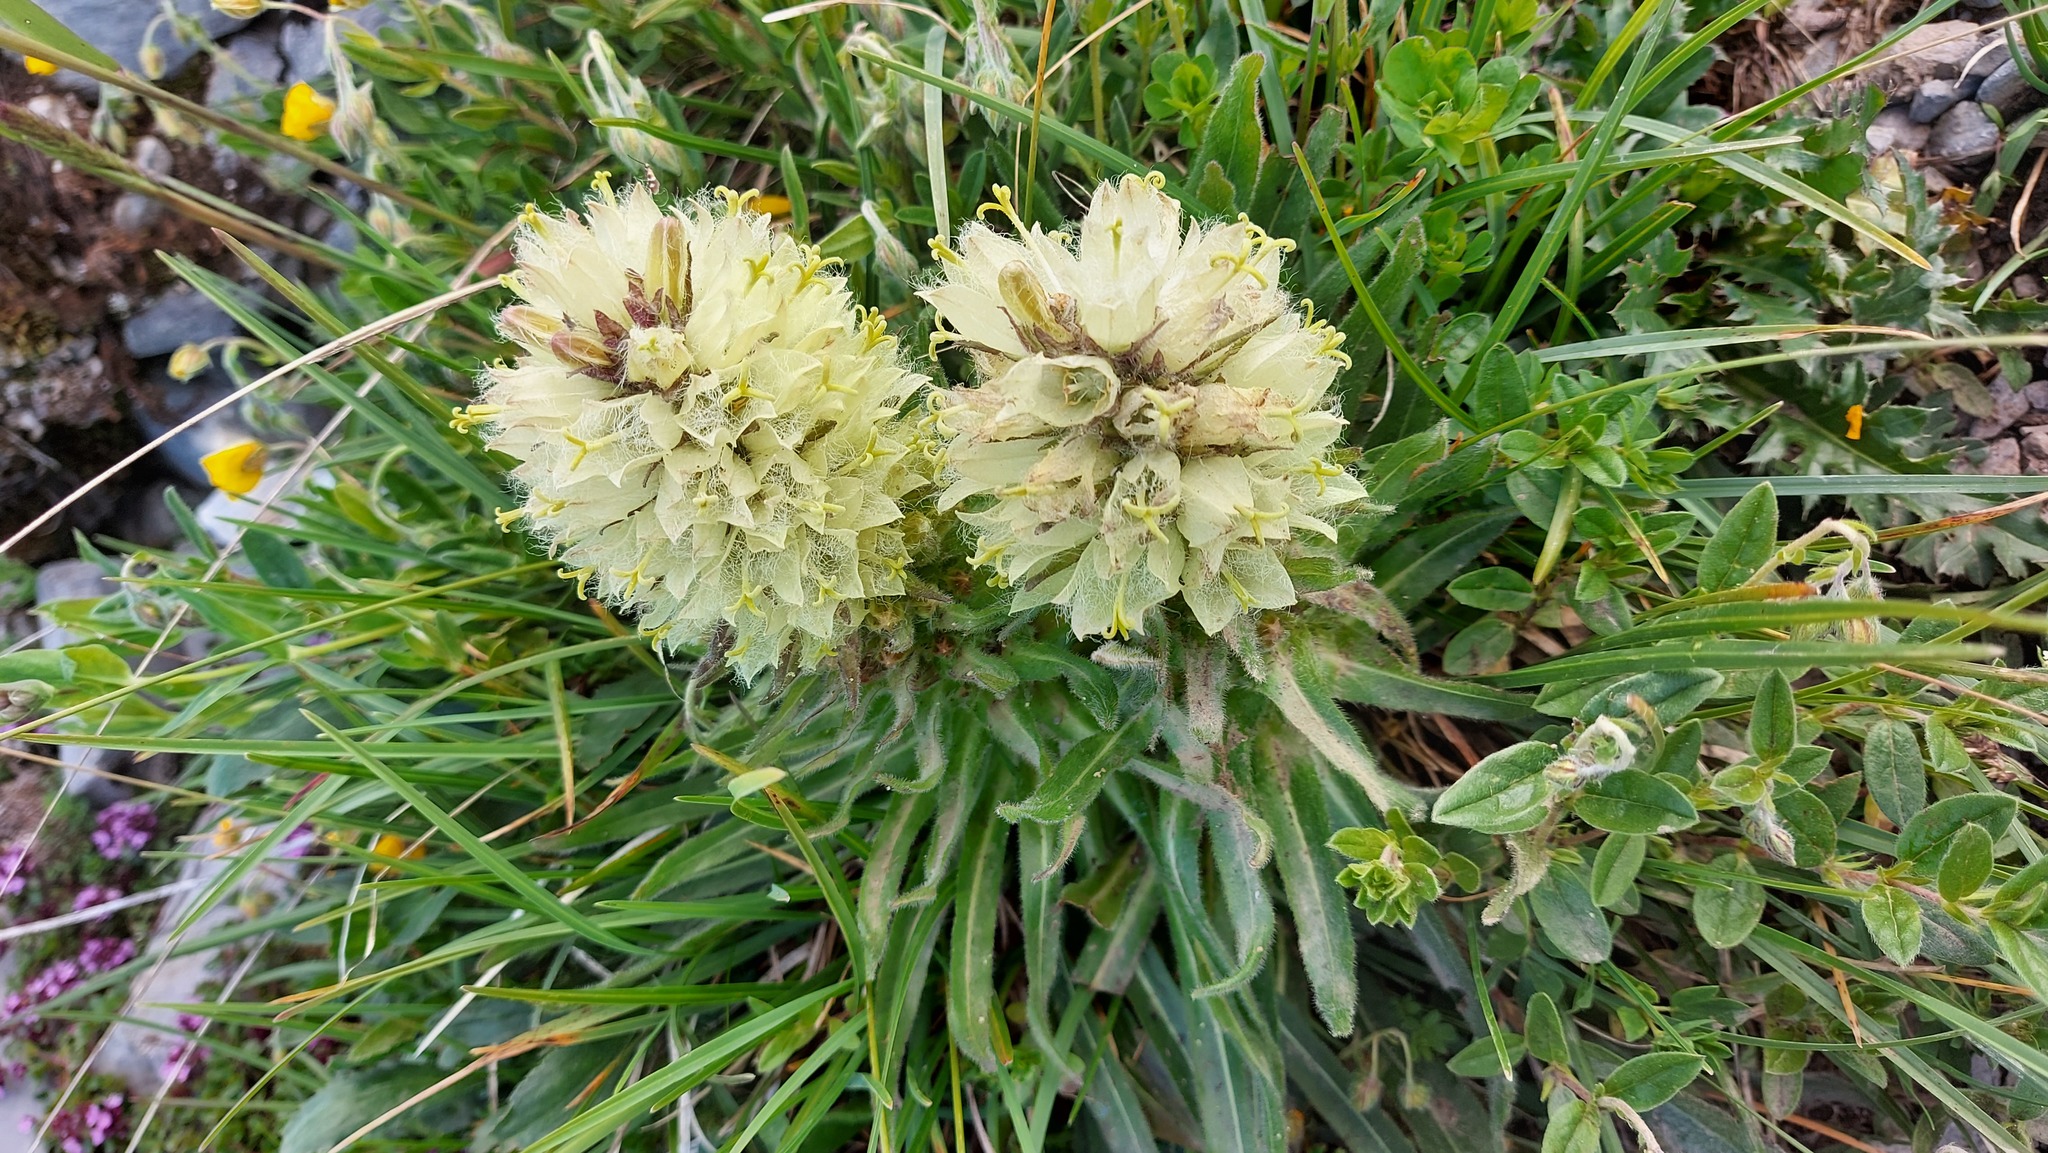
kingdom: Plantae
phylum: Tracheophyta
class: Magnoliopsida
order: Asterales
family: Campanulaceae
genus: Campanula
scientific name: Campanula thyrsoides
